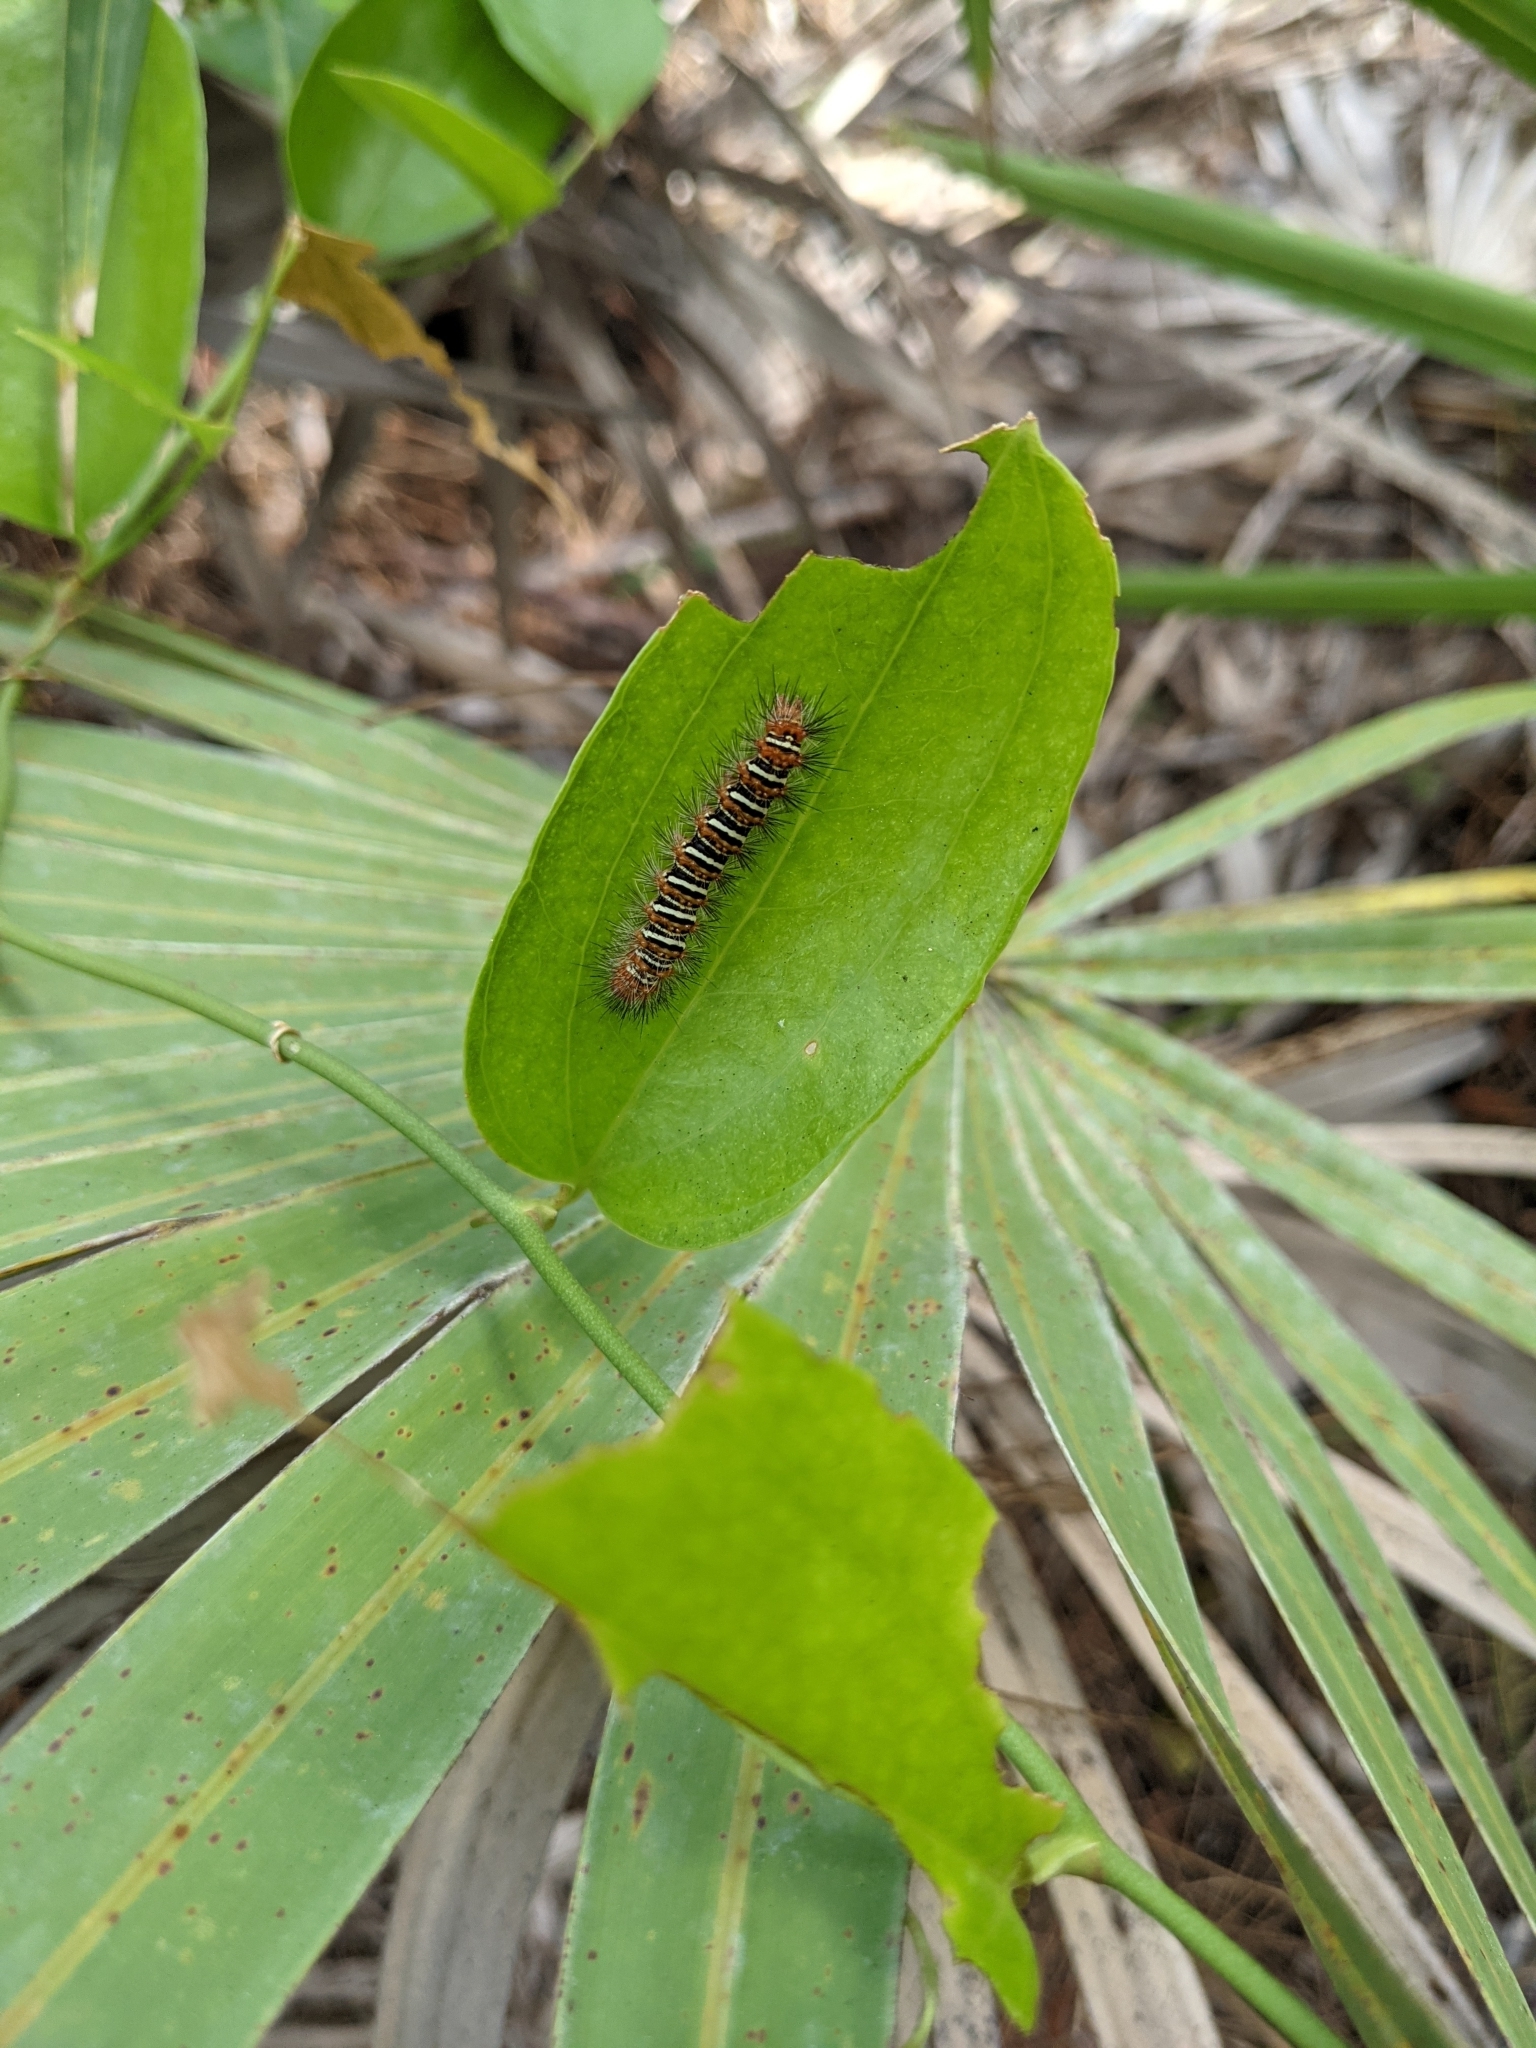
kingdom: Animalia
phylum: Arthropoda
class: Insecta
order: Lepidoptera
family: Erebidae
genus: Seirarctia
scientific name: Seirarctia echo
